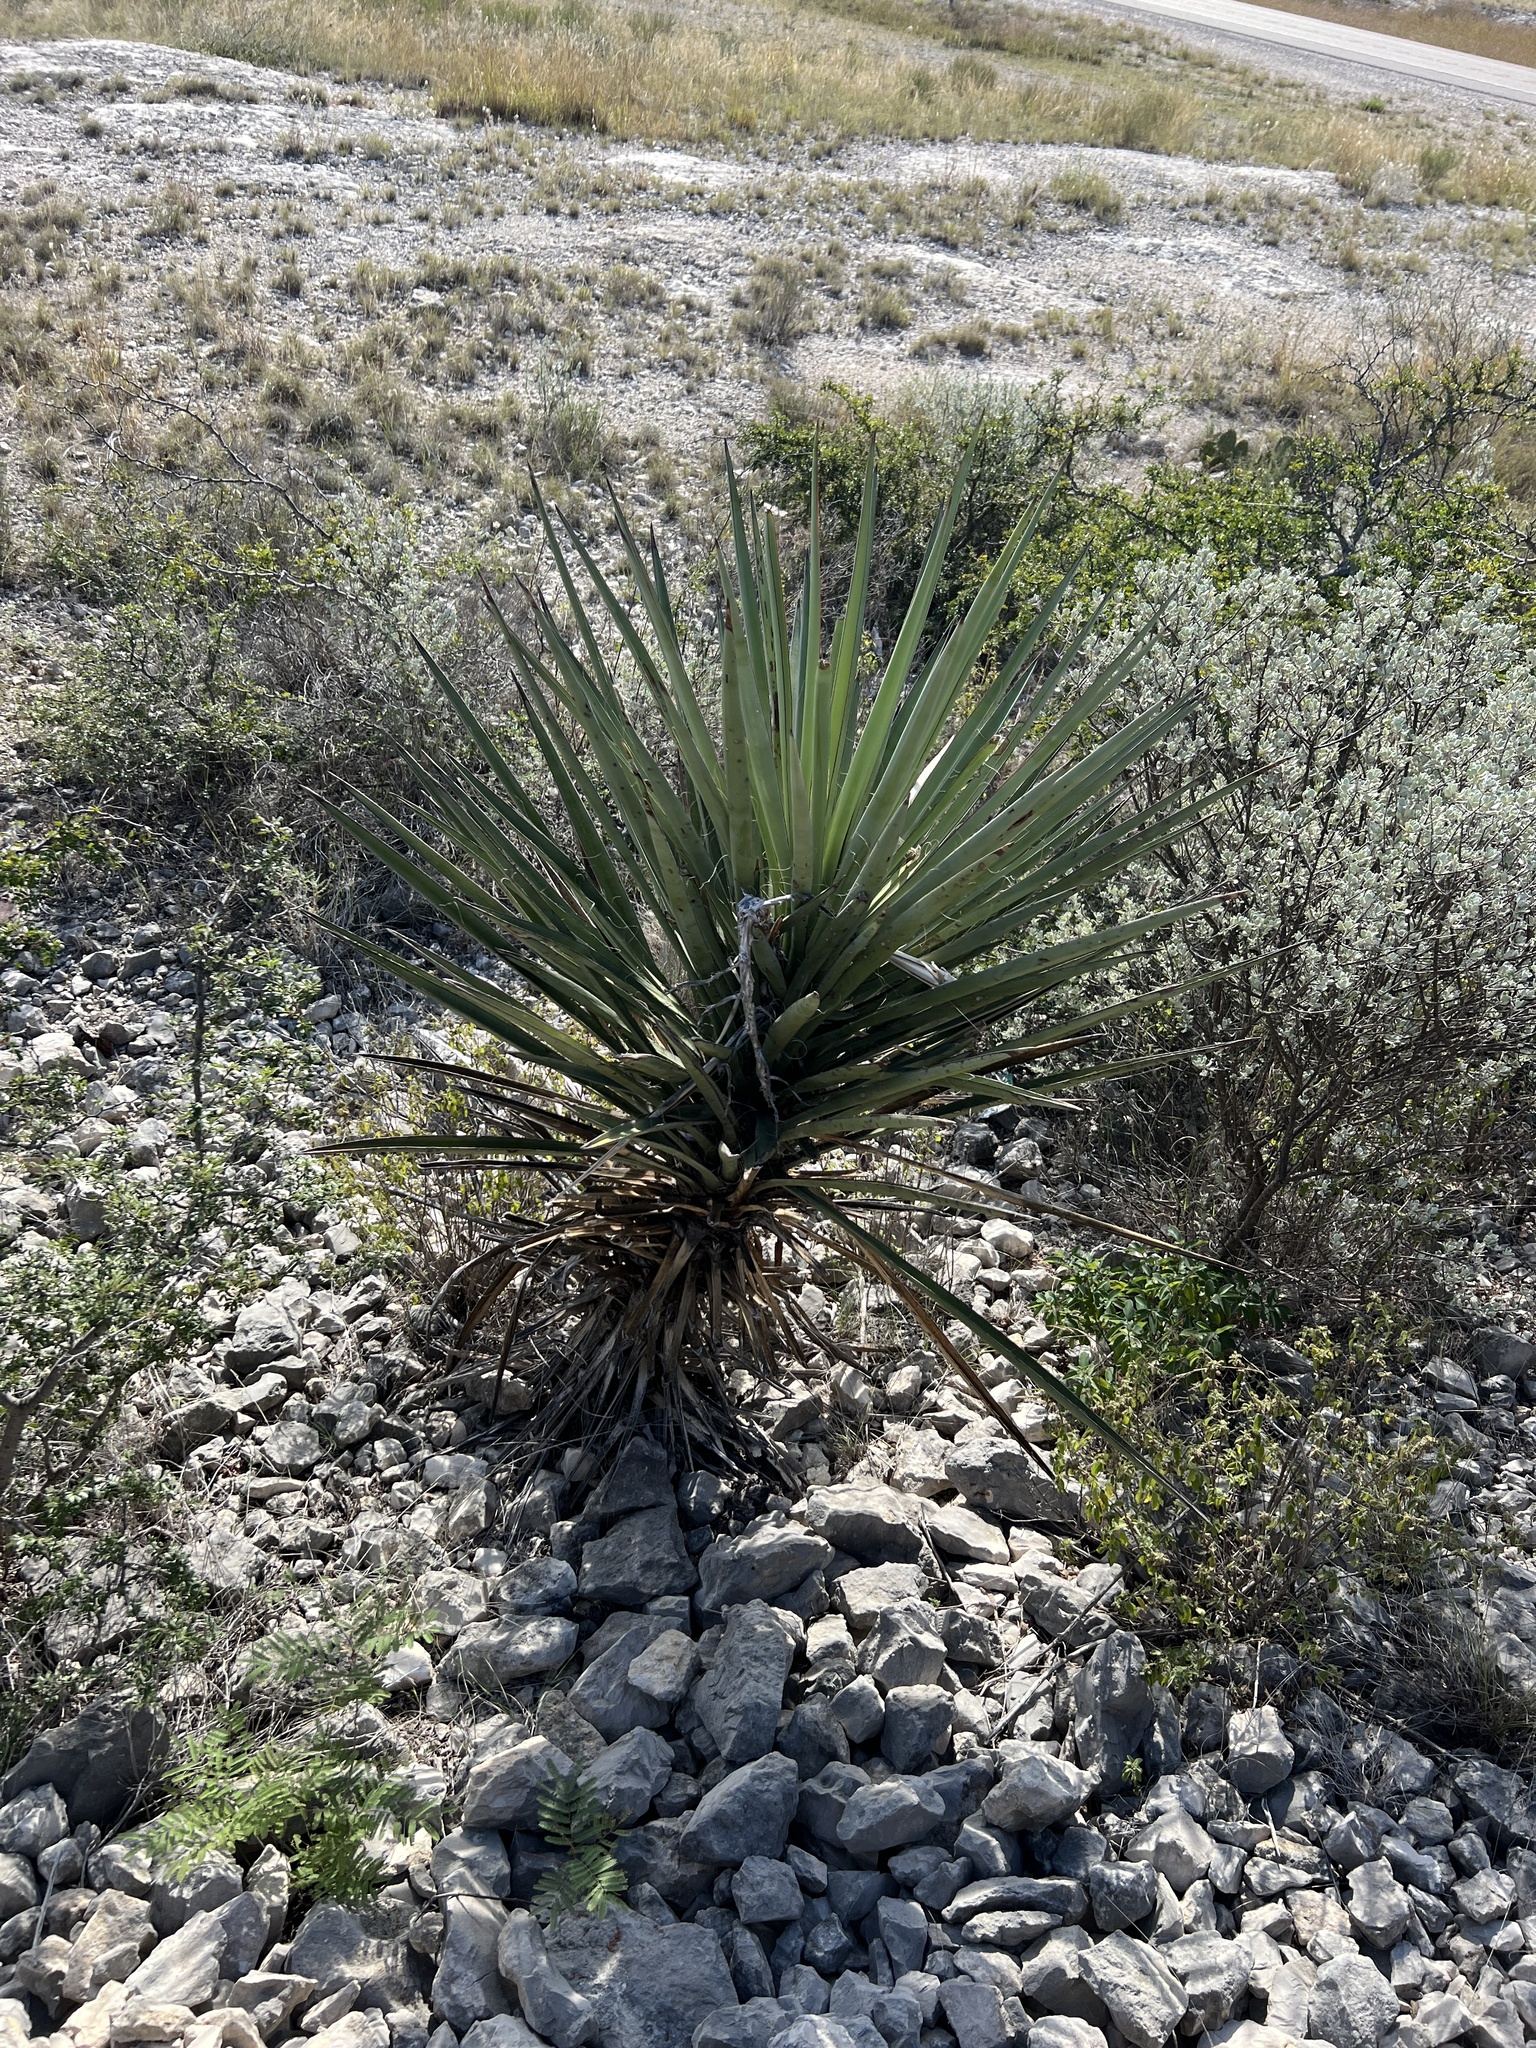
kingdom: Plantae
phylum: Tracheophyta
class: Liliopsida
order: Asparagales
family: Asparagaceae
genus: Yucca
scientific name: Yucca treculiana
